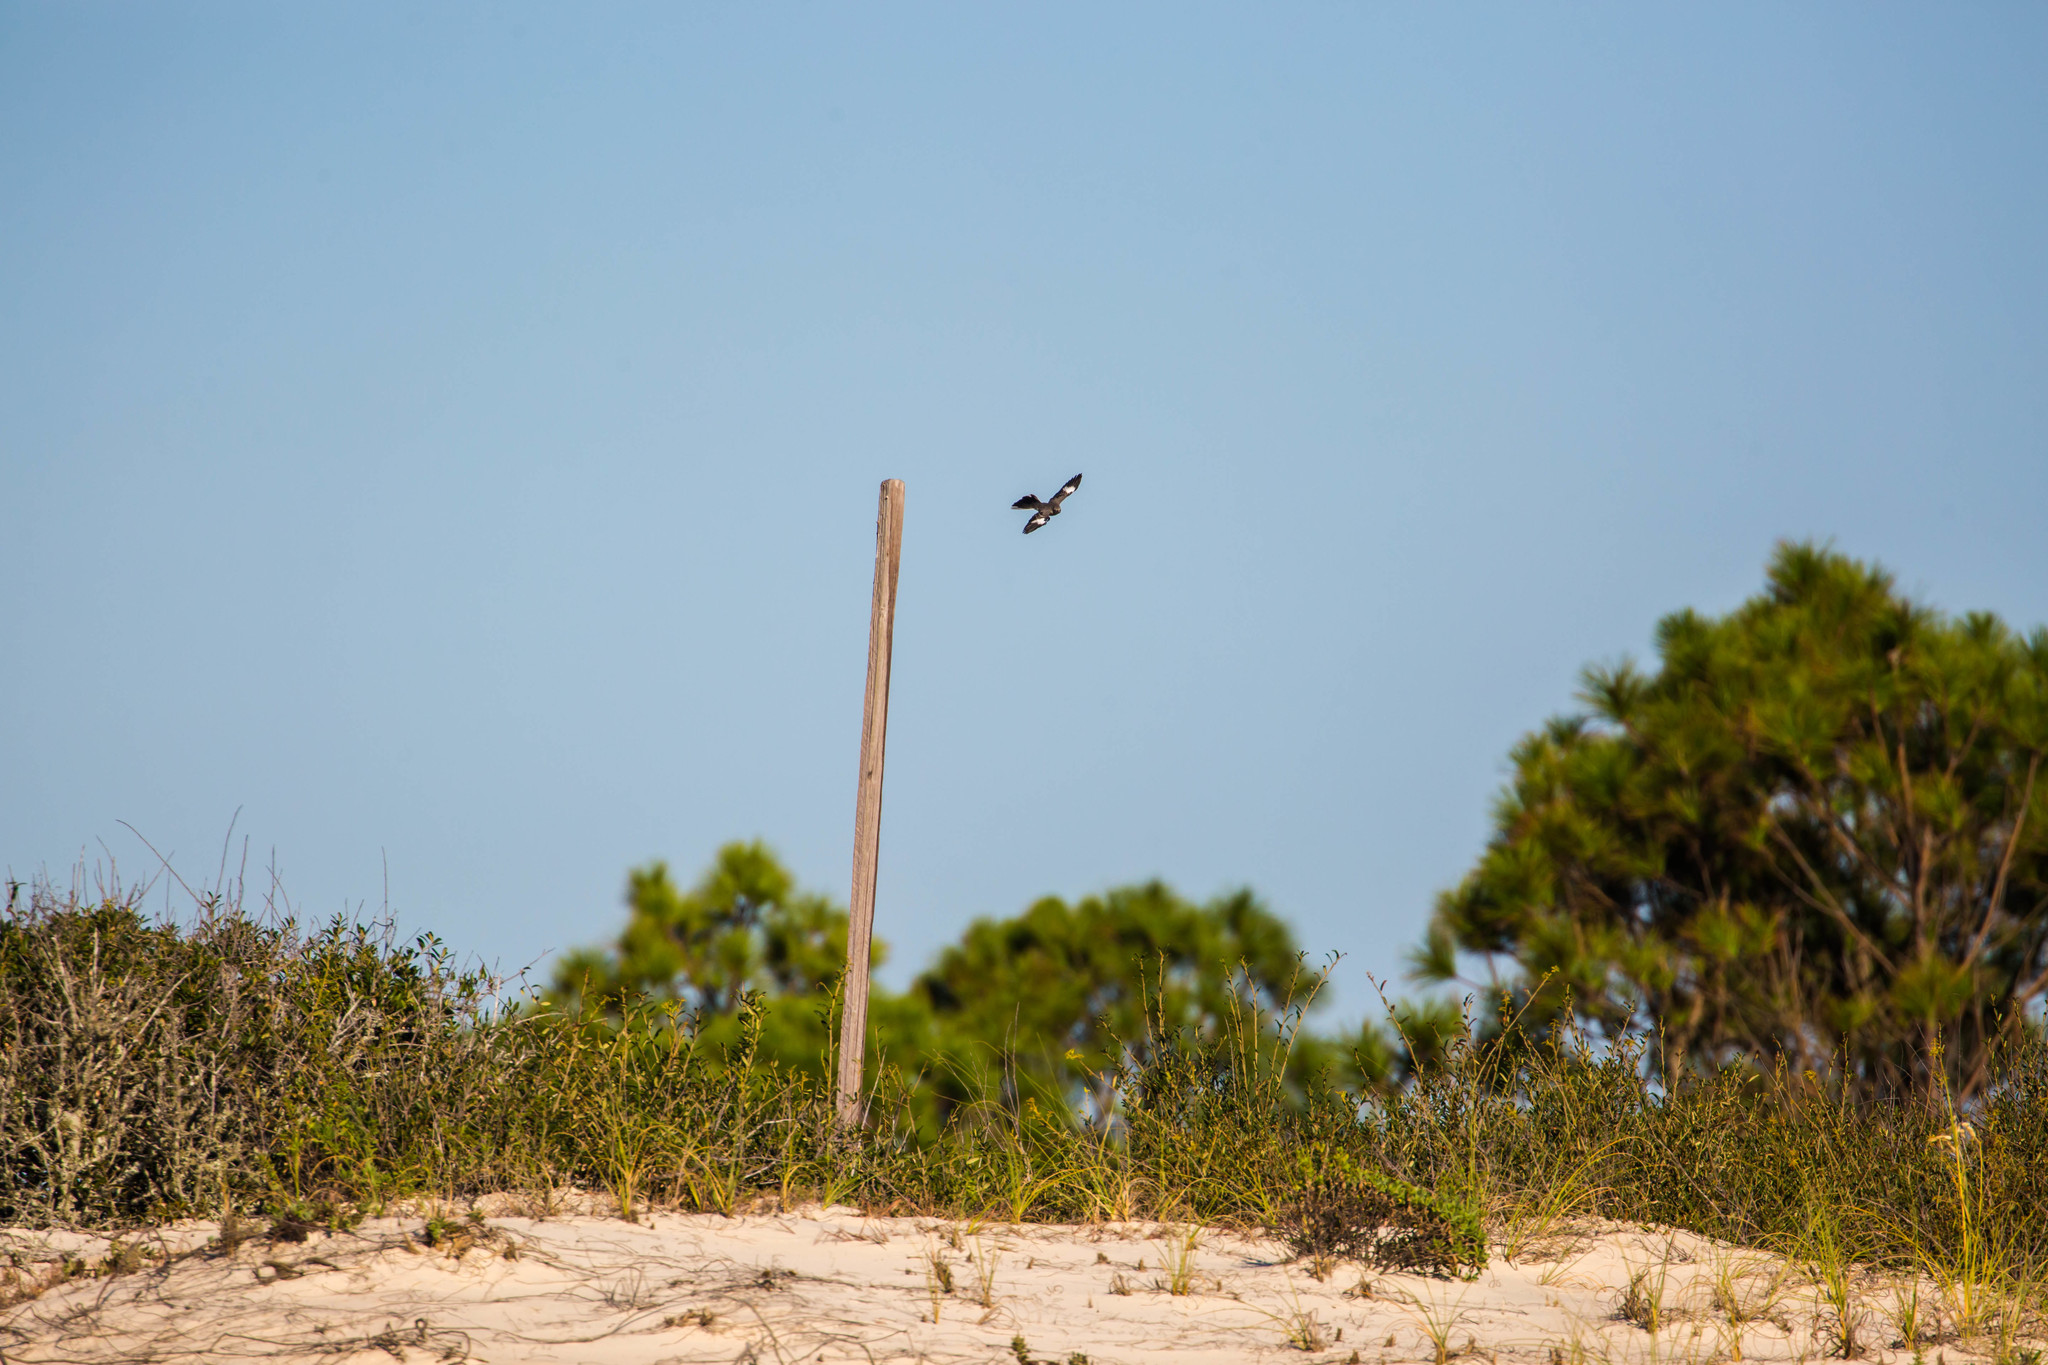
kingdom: Animalia
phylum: Chordata
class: Aves
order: Passeriformes
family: Mimidae
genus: Mimus
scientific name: Mimus polyglottos
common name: Northern mockingbird
